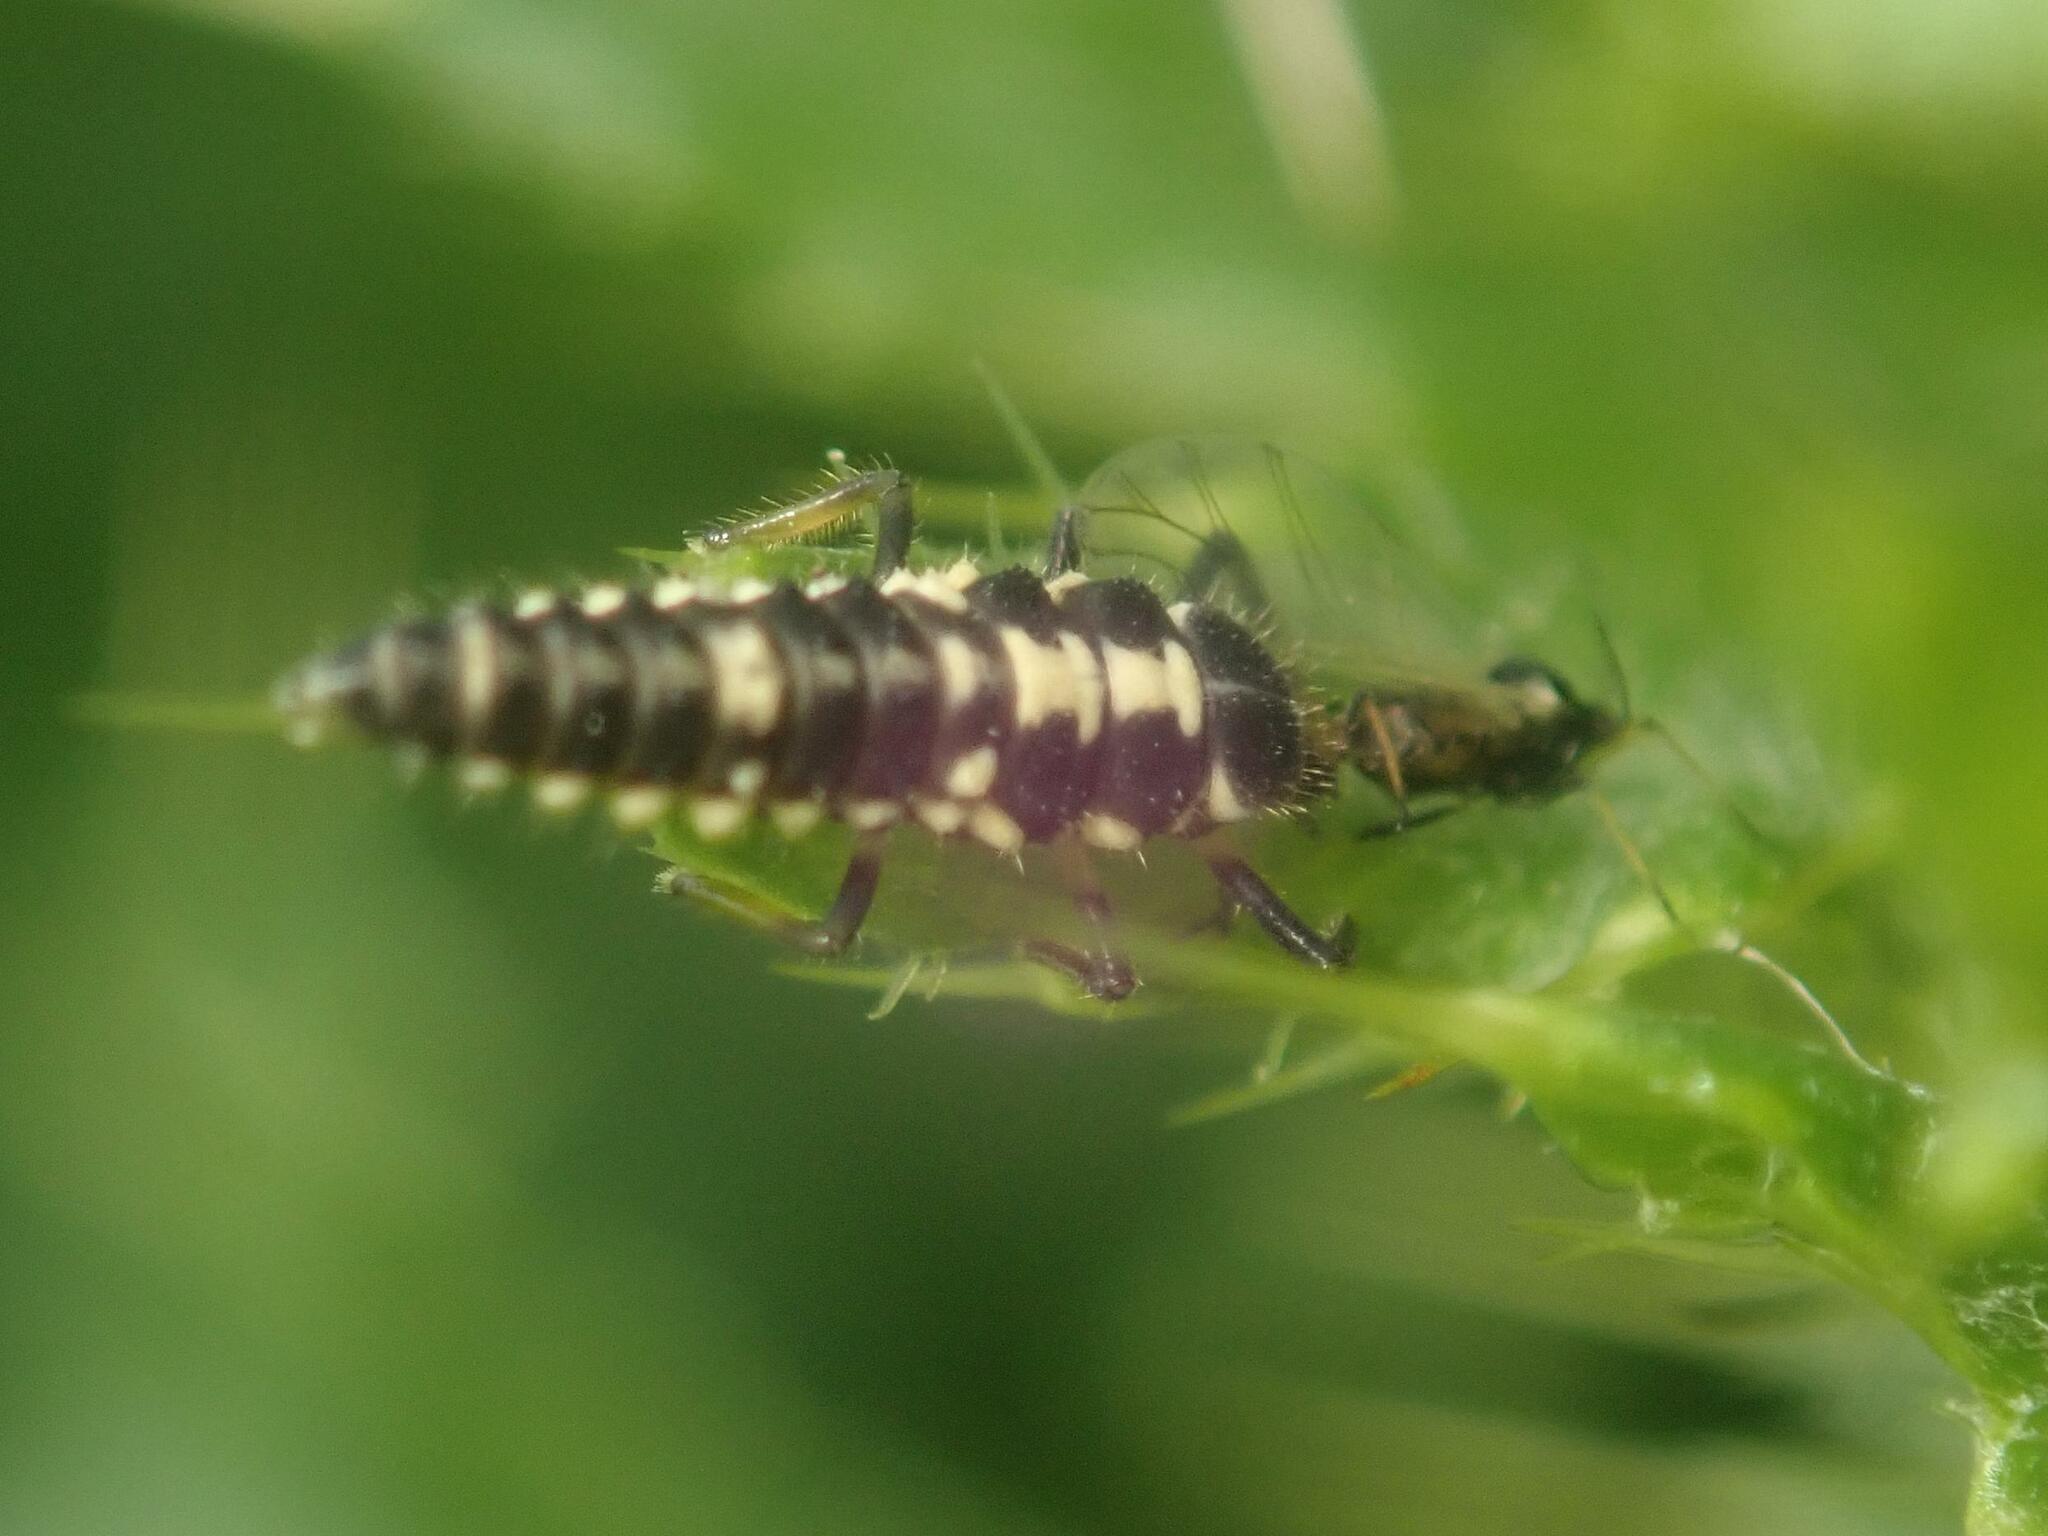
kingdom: Animalia
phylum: Arthropoda
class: Insecta
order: Coleoptera
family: Coccinellidae
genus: Propylaea
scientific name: Propylaea quatuordecimpunctata
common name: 14-spotted ladybird beetle
